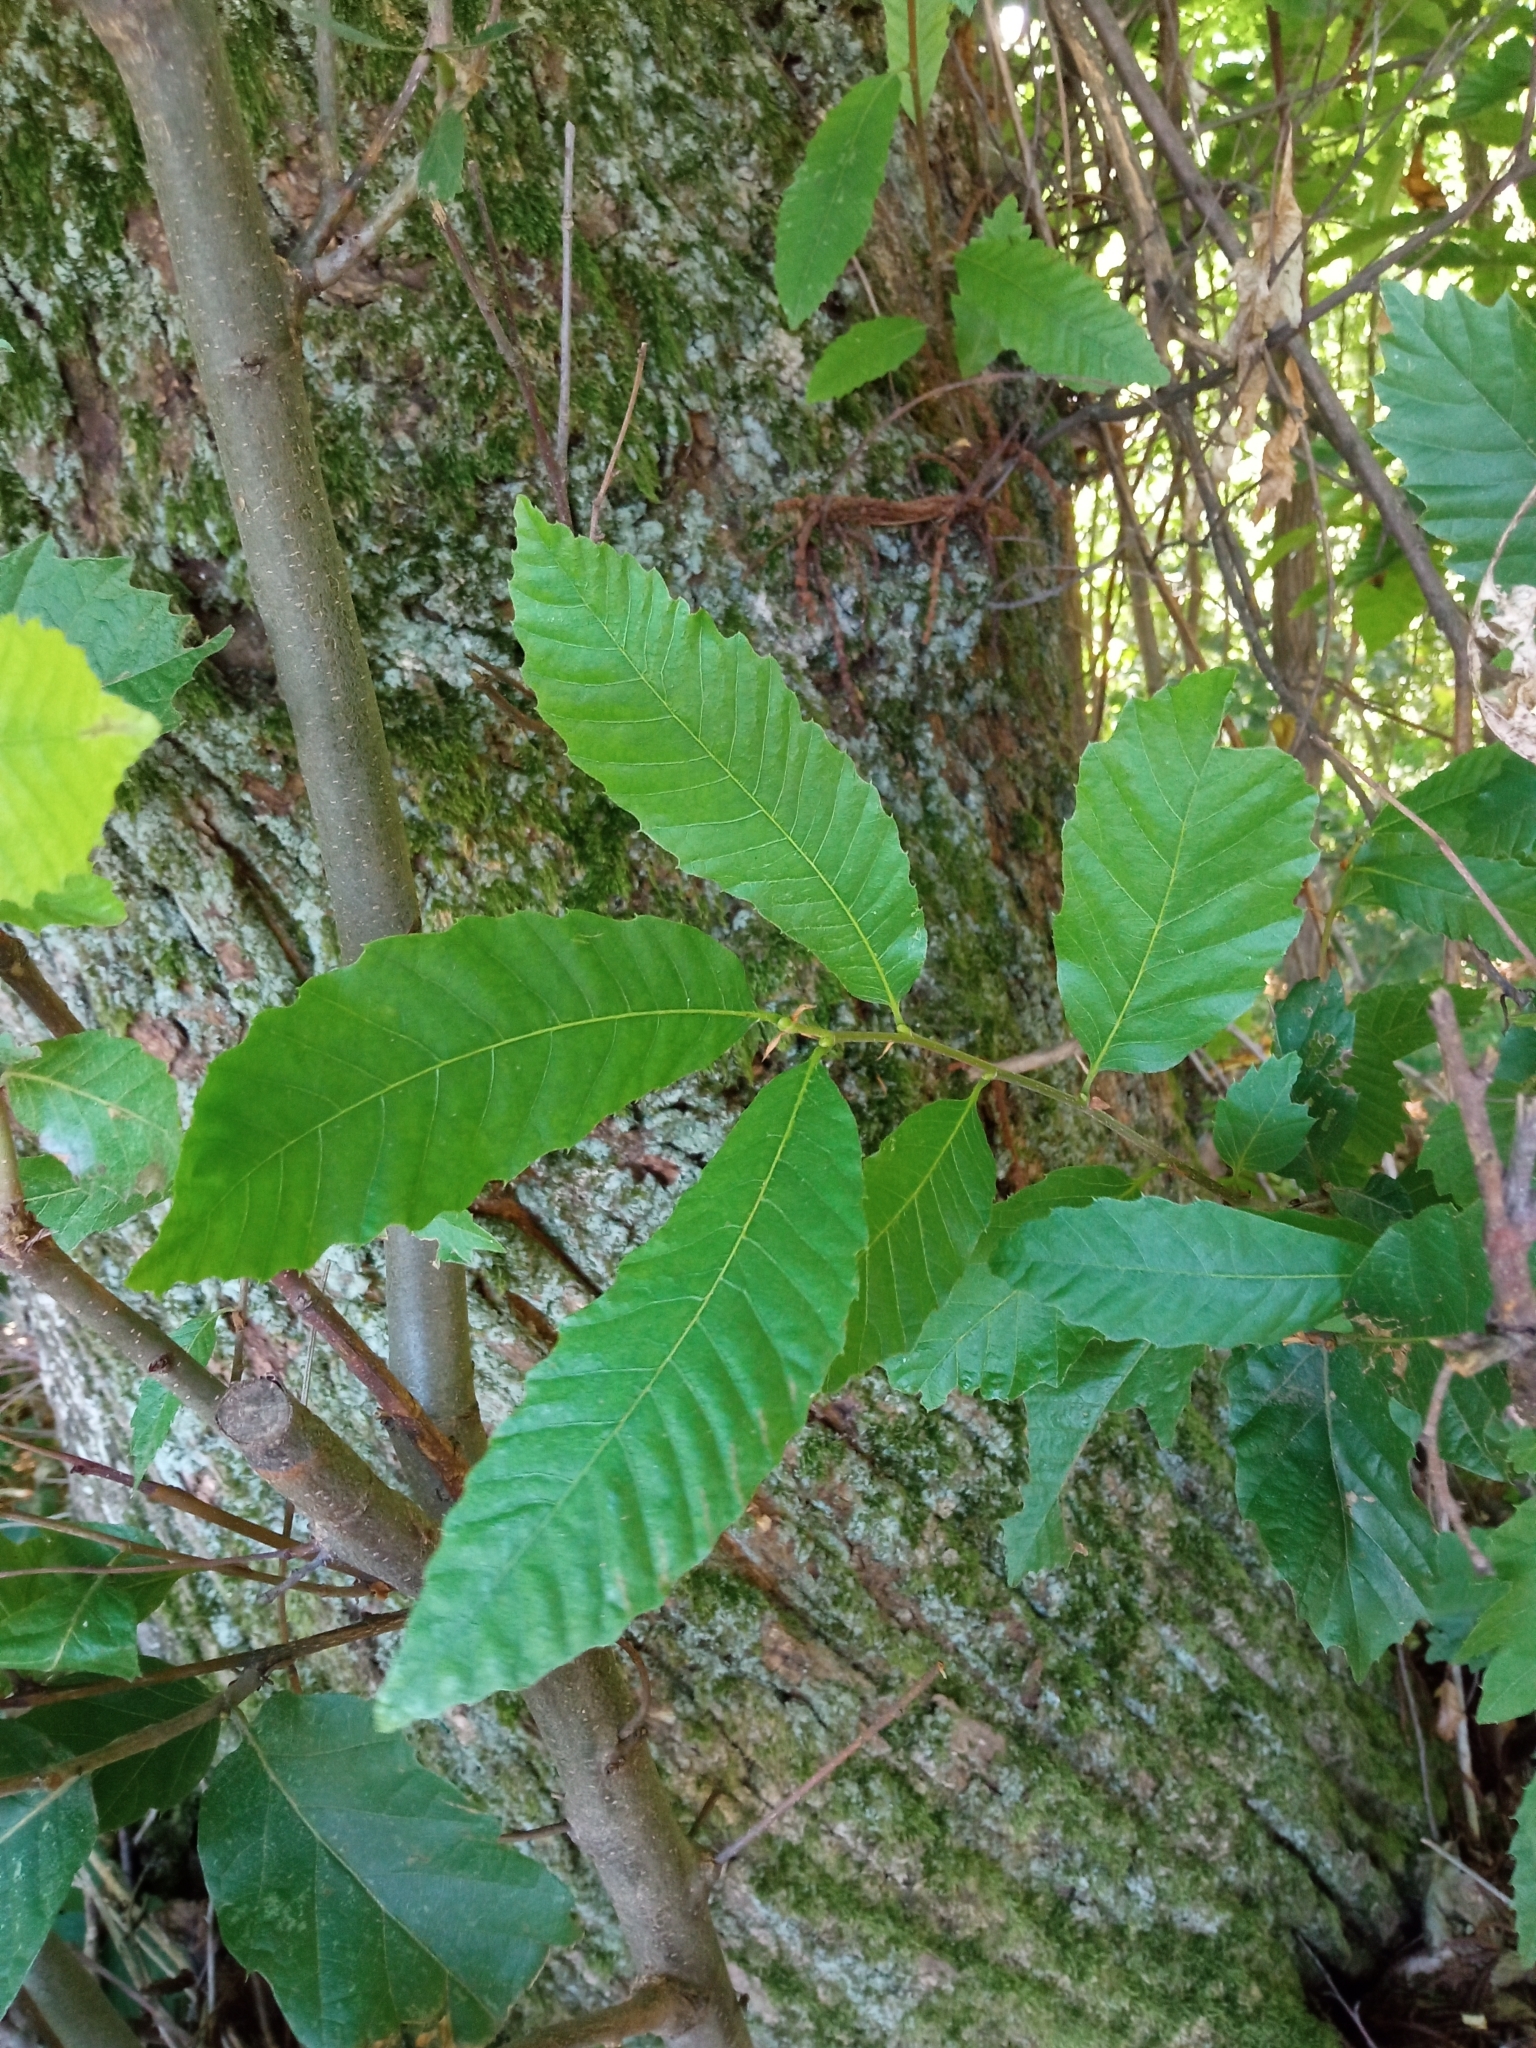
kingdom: Plantae
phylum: Tracheophyta
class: Magnoliopsida
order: Fagales
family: Fagaceae
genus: Castanea
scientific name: Castanea sativa
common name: Sweet chestnut
